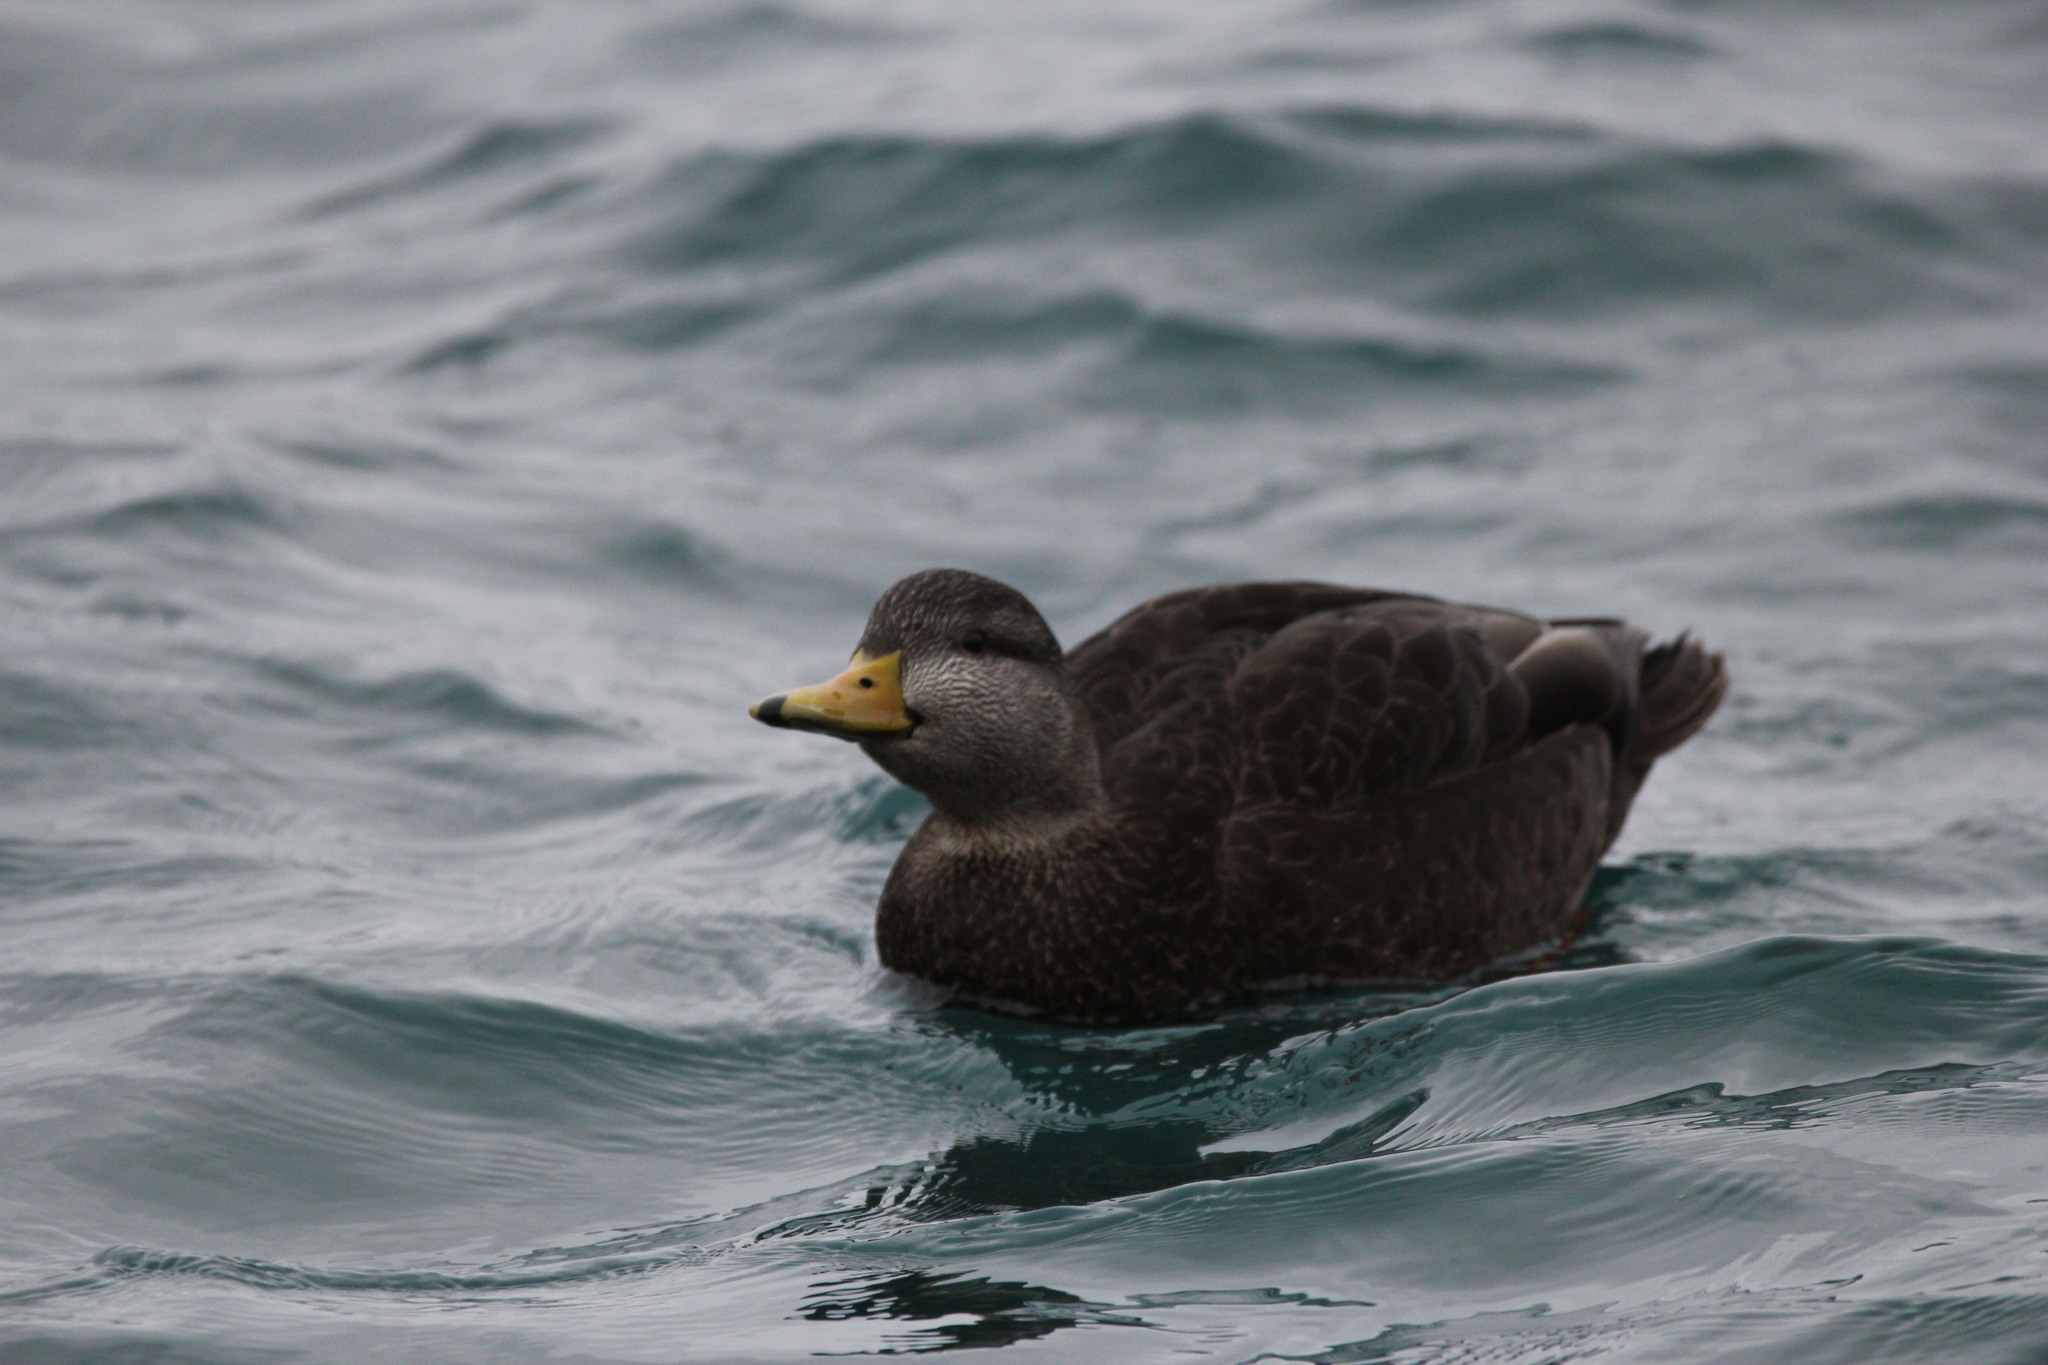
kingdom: Animalia
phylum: Chordata
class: Aves
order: Anseriformes
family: Anatidae
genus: Anas
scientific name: Anas rubripes
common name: American black duck
